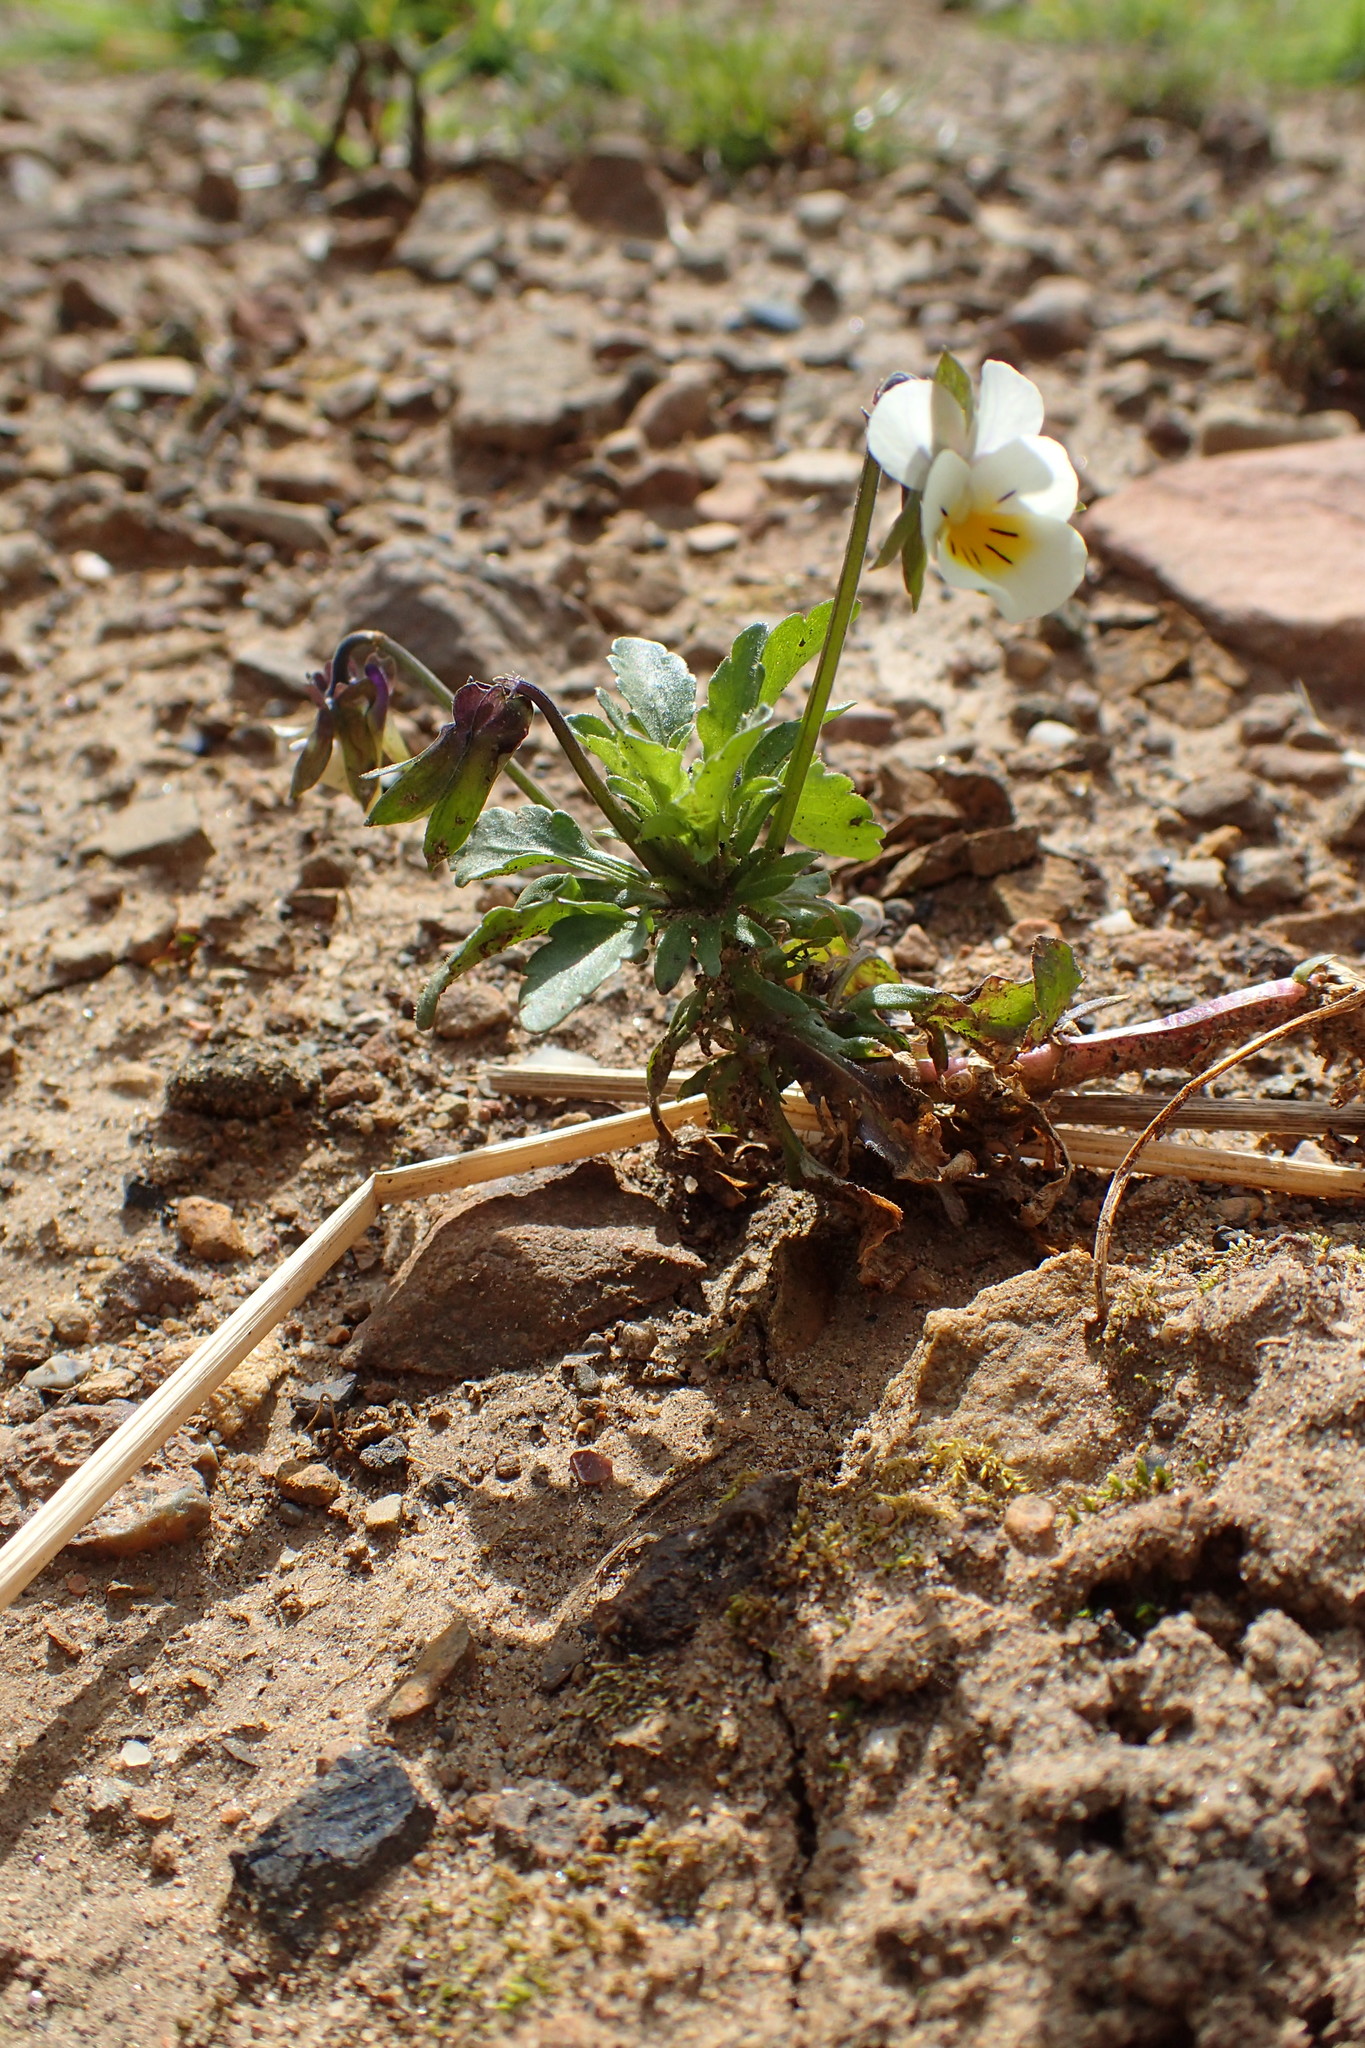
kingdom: Plantae
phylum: Tracheophyta
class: Magnoliopsida
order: Malpighiales
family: Violaceae
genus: Viola
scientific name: Viola arvensis
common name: Field pansy
